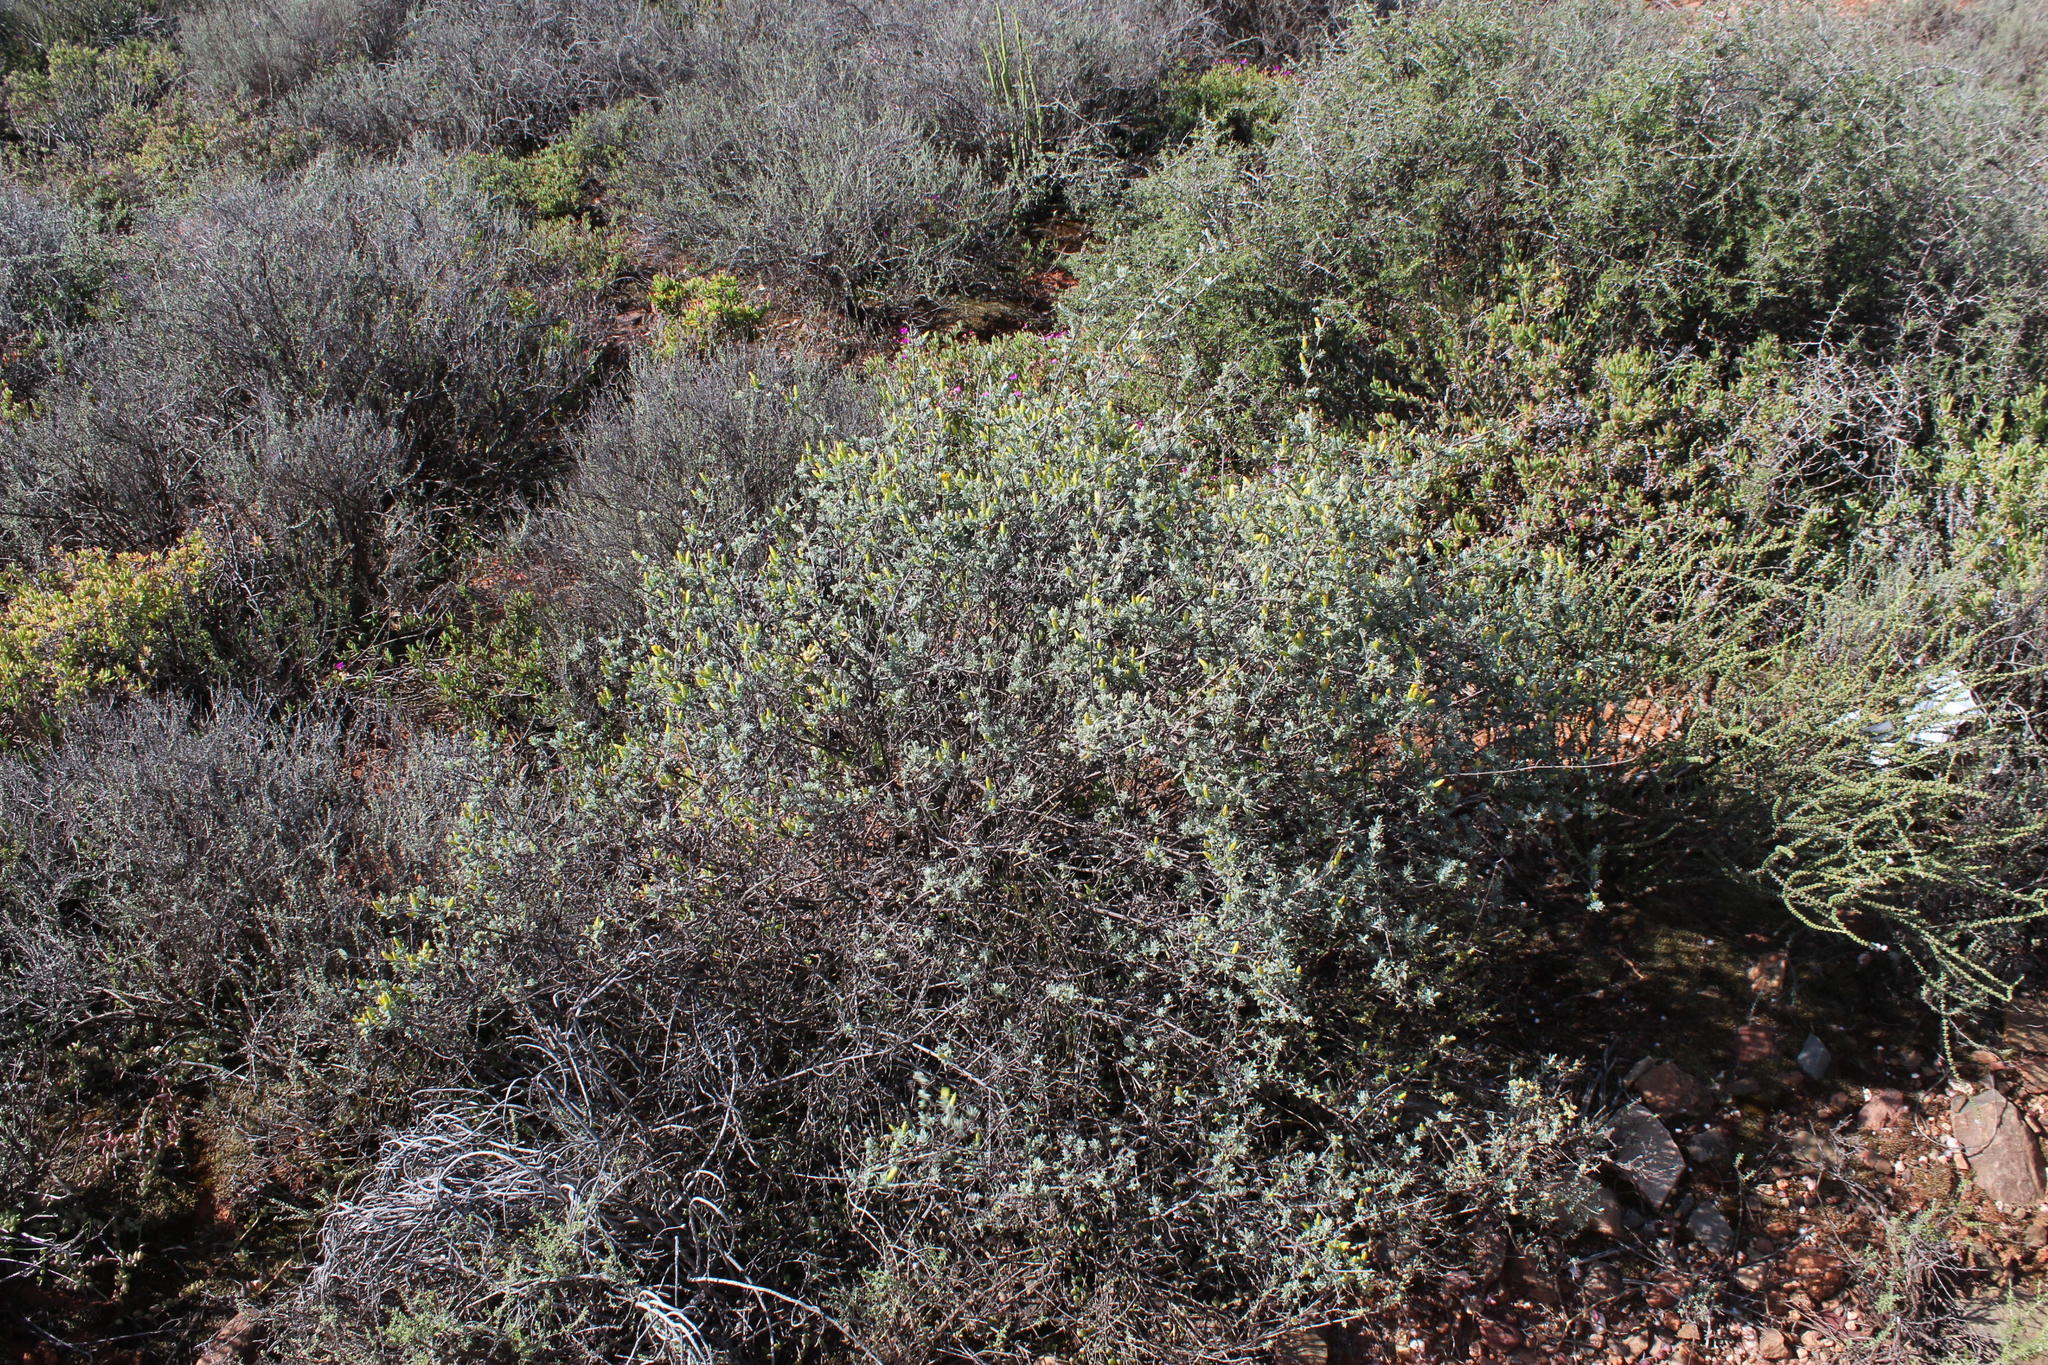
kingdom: Plantae
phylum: Tracheophyta
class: Magnoliopsida
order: Asterales
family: Asteraceae
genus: Pteronia
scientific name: Pteronia incana
